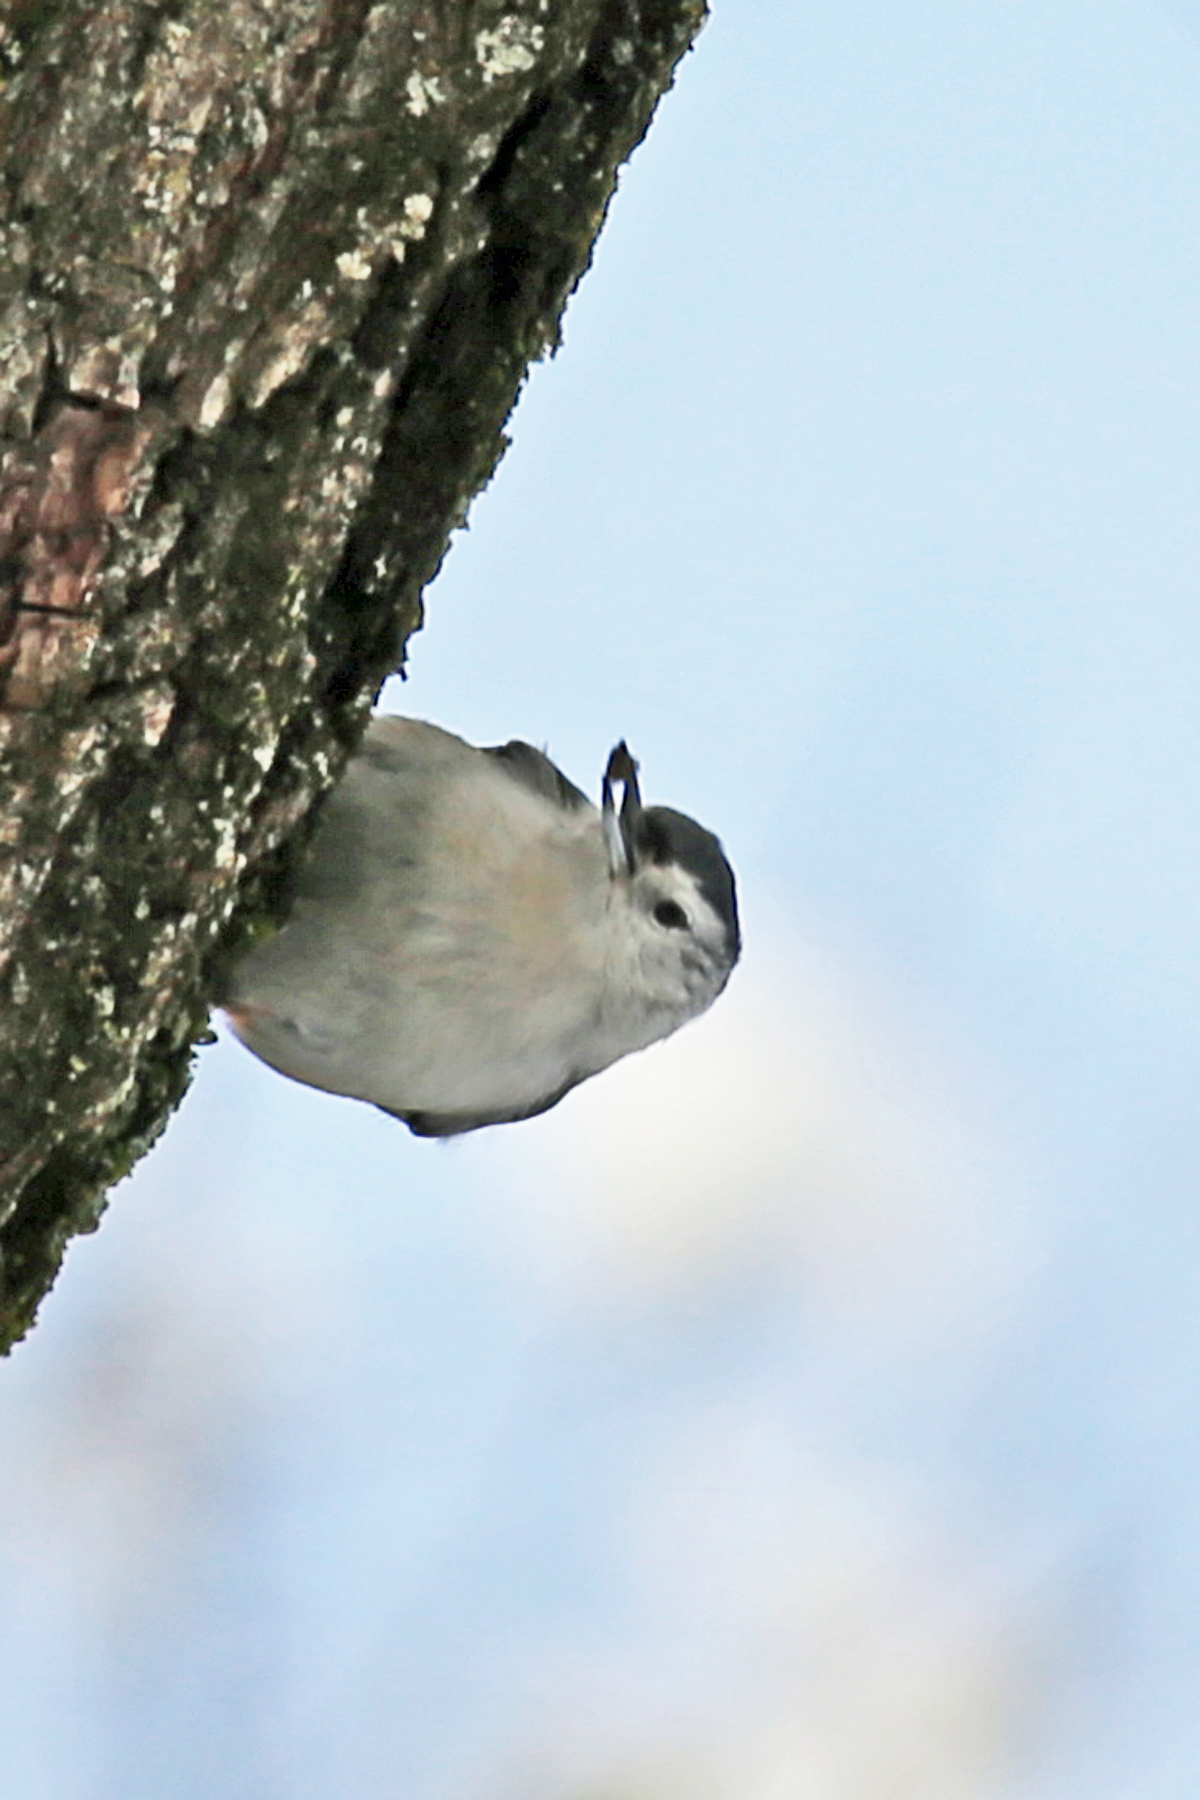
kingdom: Animalia
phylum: Chordata
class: Aves
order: Passeriformes
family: Sittidae
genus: Sitta
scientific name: Sitta carolinensis
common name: White-breasted nuthatch
